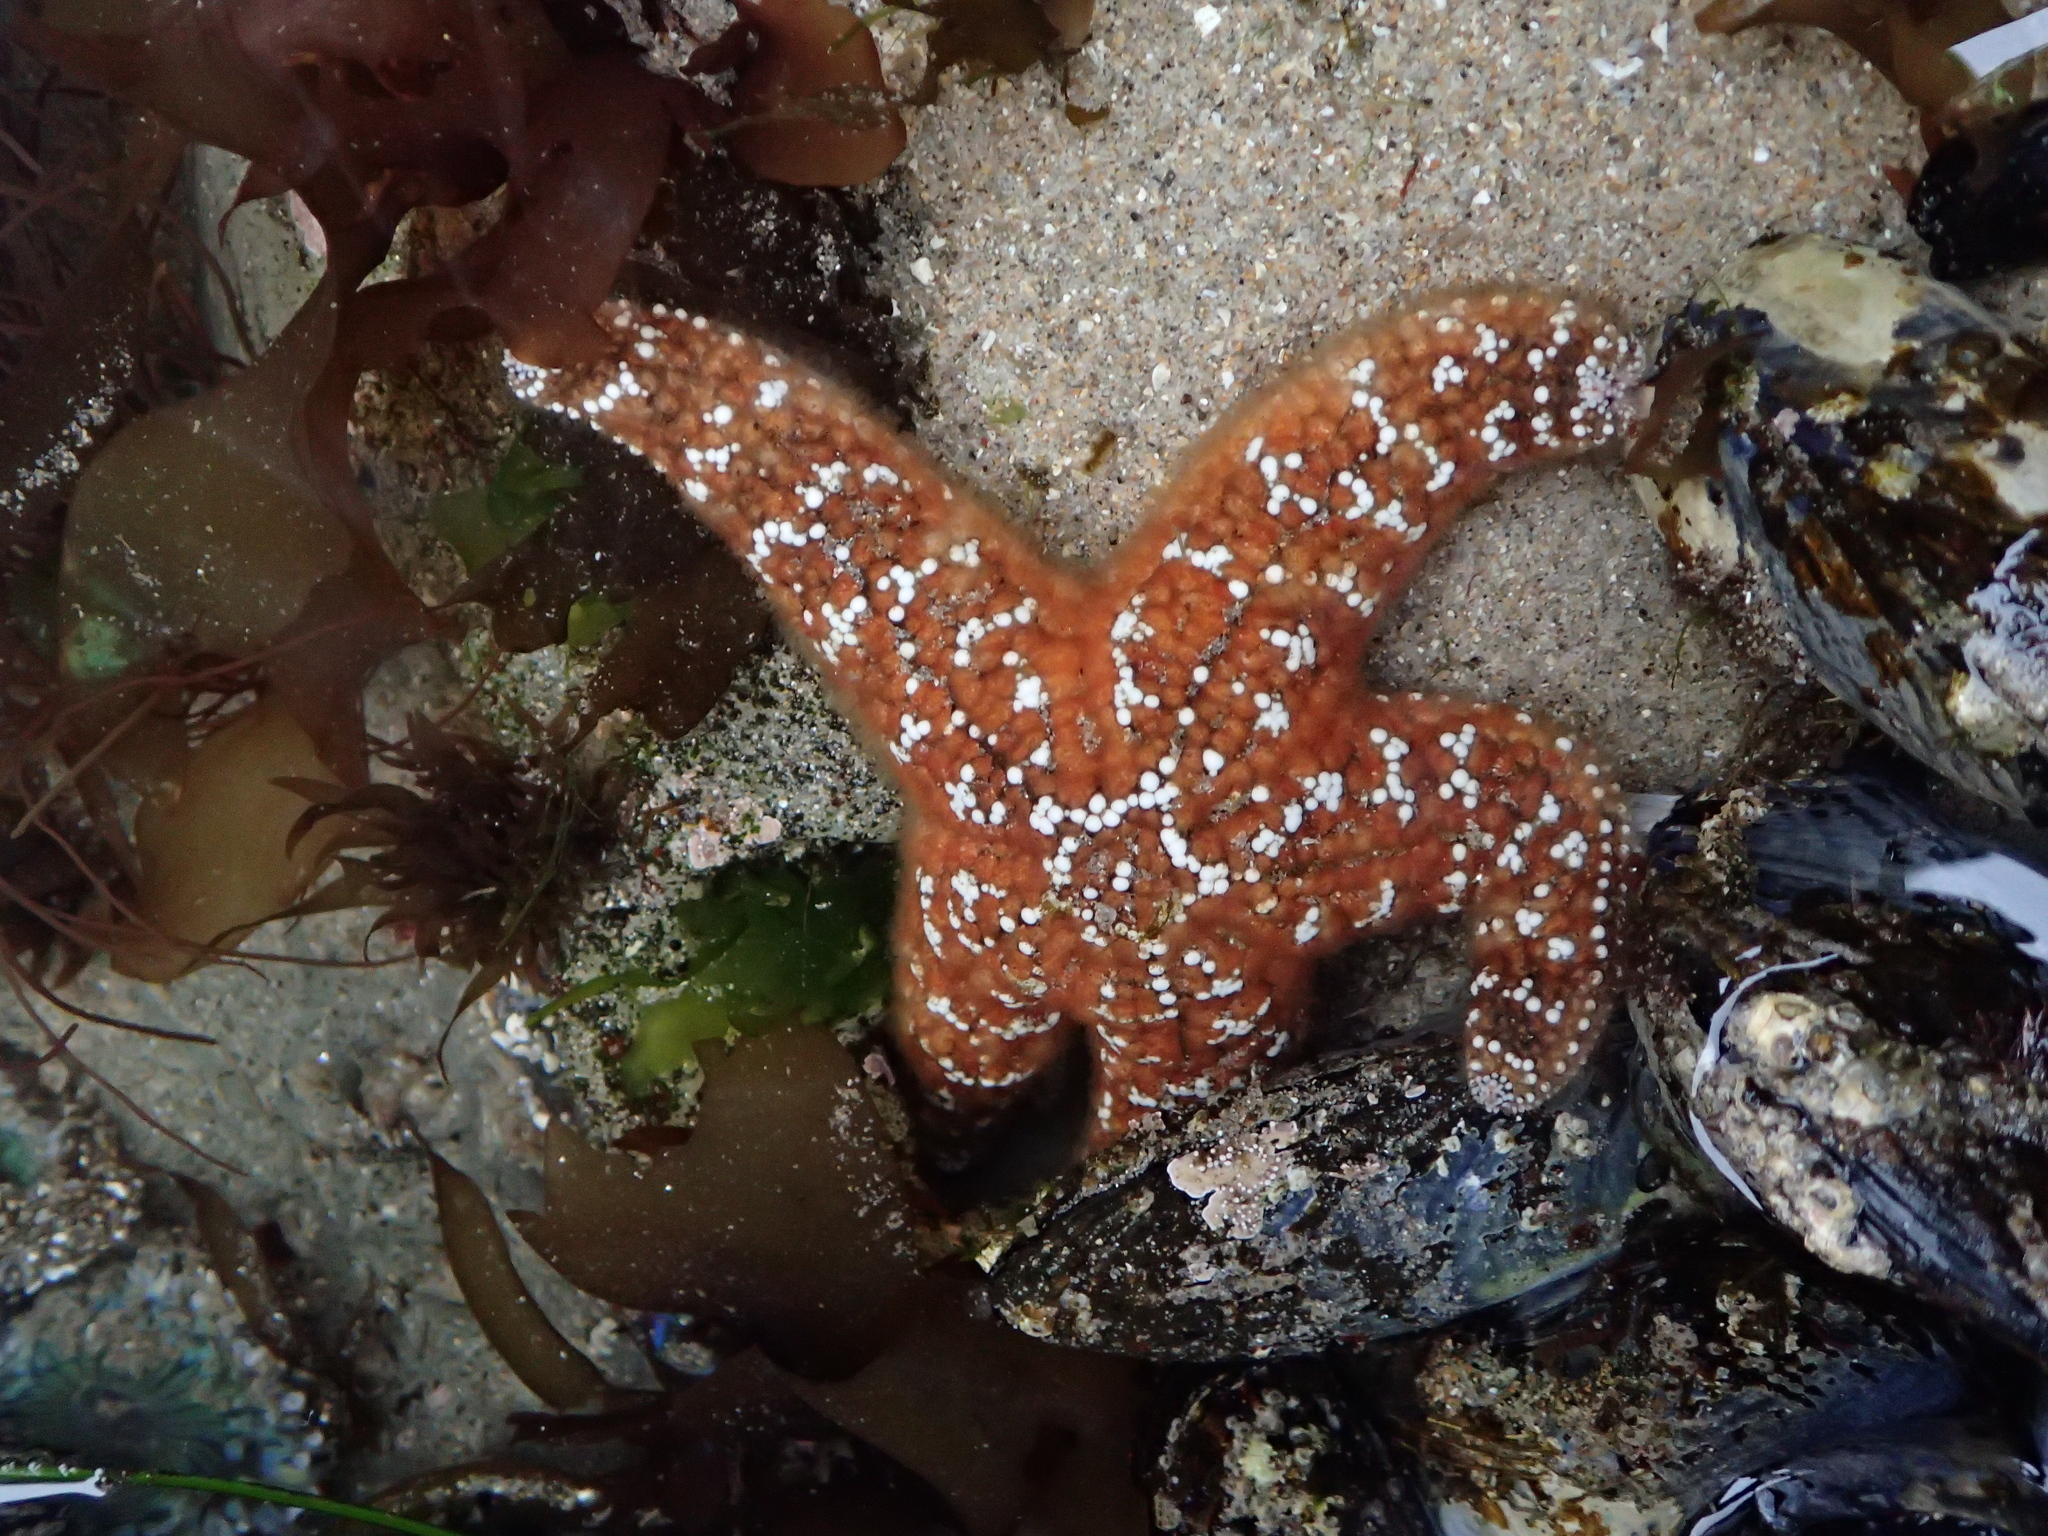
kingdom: Animalia
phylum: Echinodermata
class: Asteroidea
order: Forcipulatida
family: Asteriidae
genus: Pisaster
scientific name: Pisaster ochraceus
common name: Ochre stars
